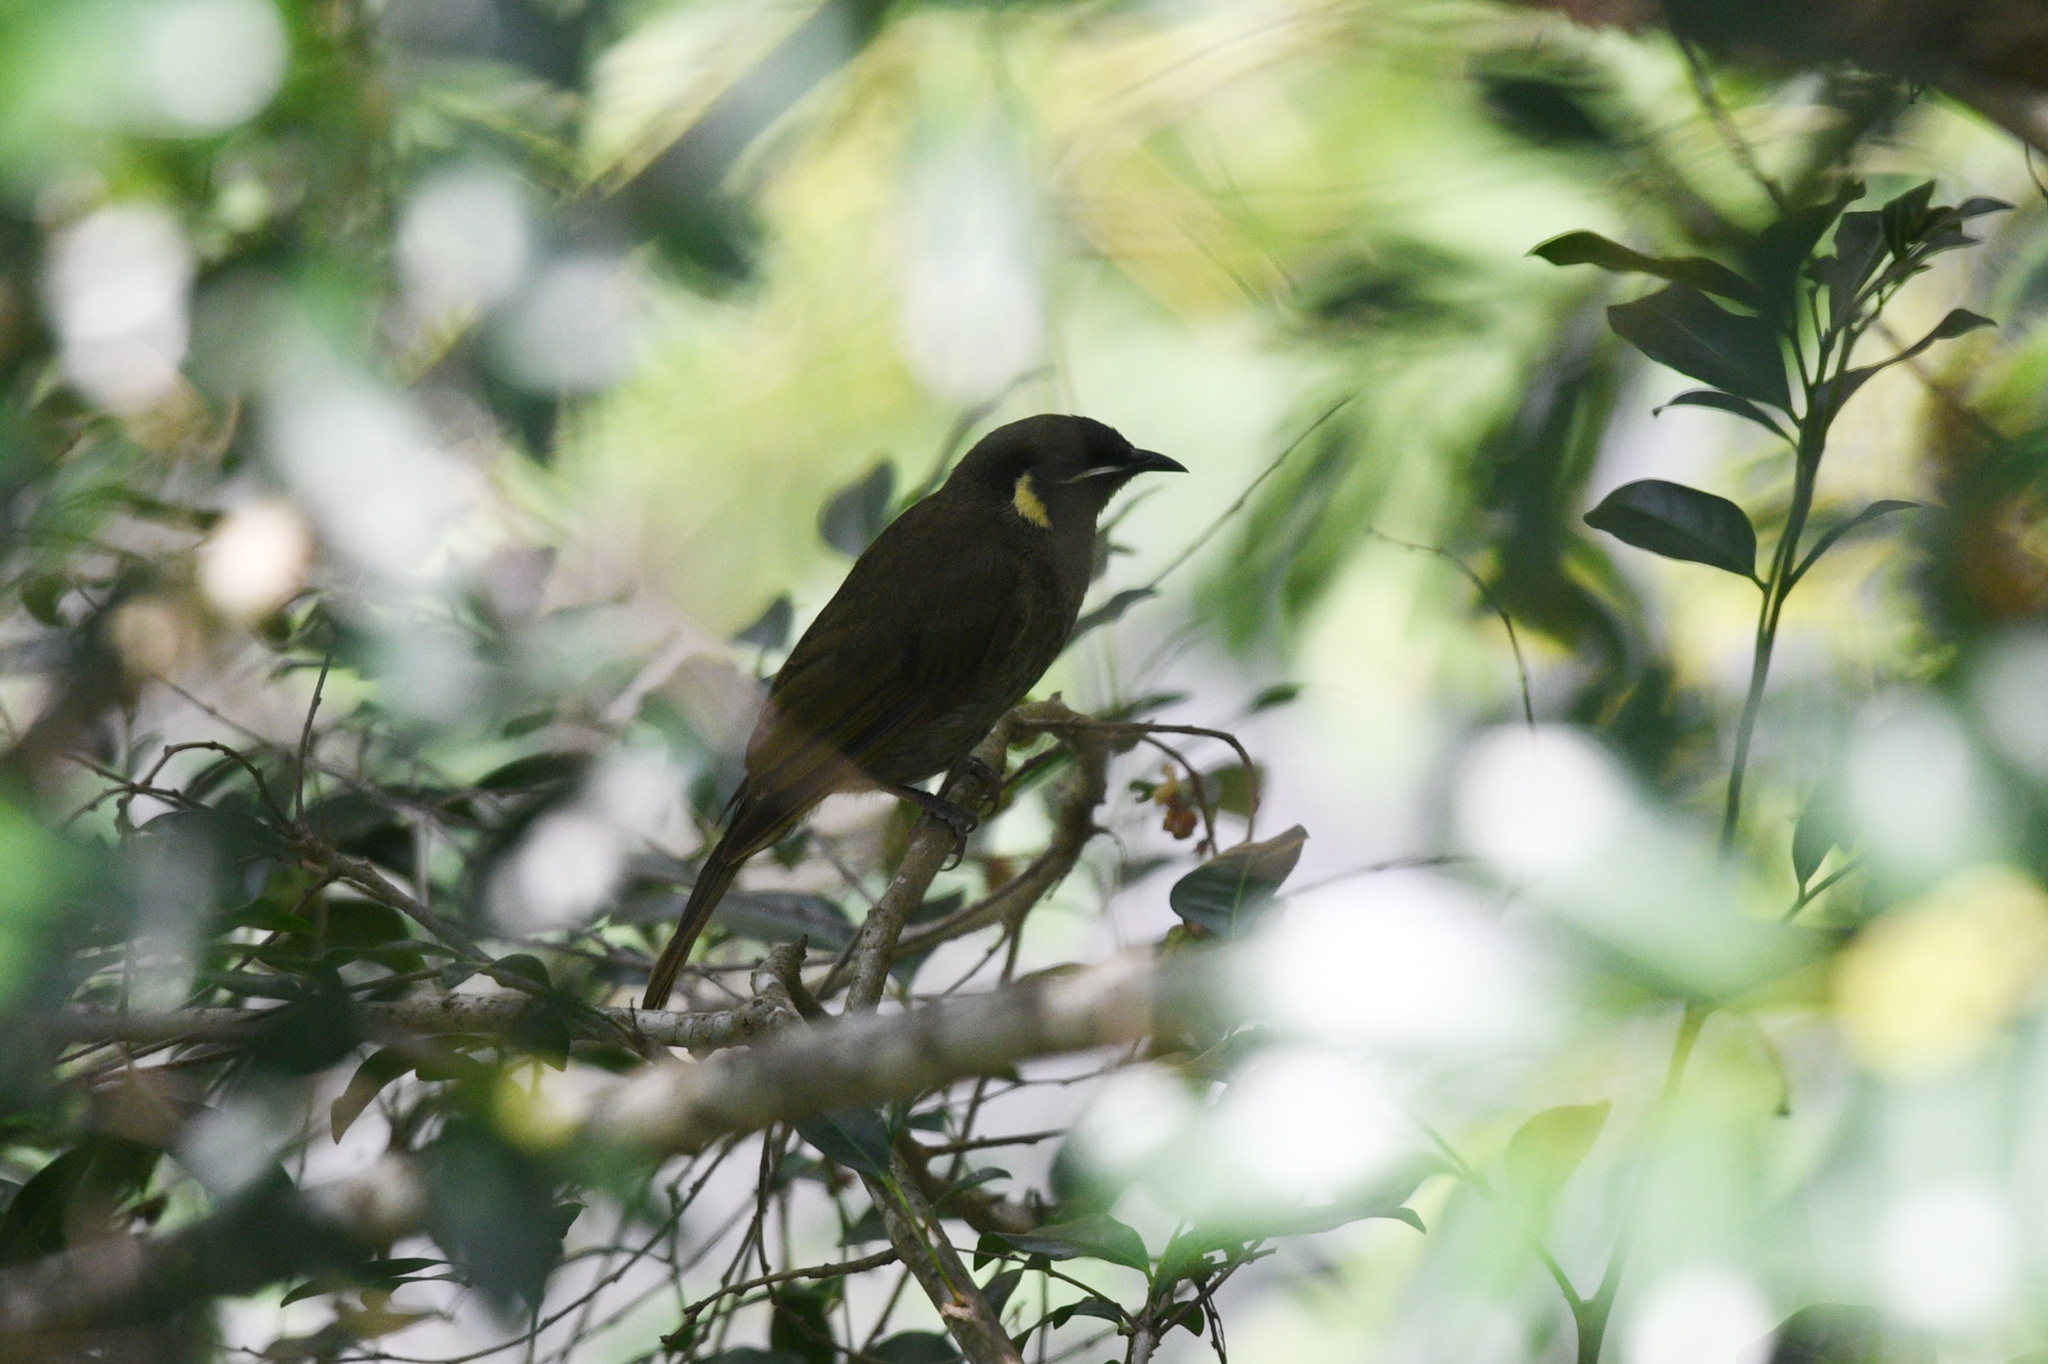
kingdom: Animalia
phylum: Chordata
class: Aves
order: Passeriformes
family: Meliphagidae
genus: Meliphaga
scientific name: Meliphaga lewinii
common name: Lewin's honeyeater
